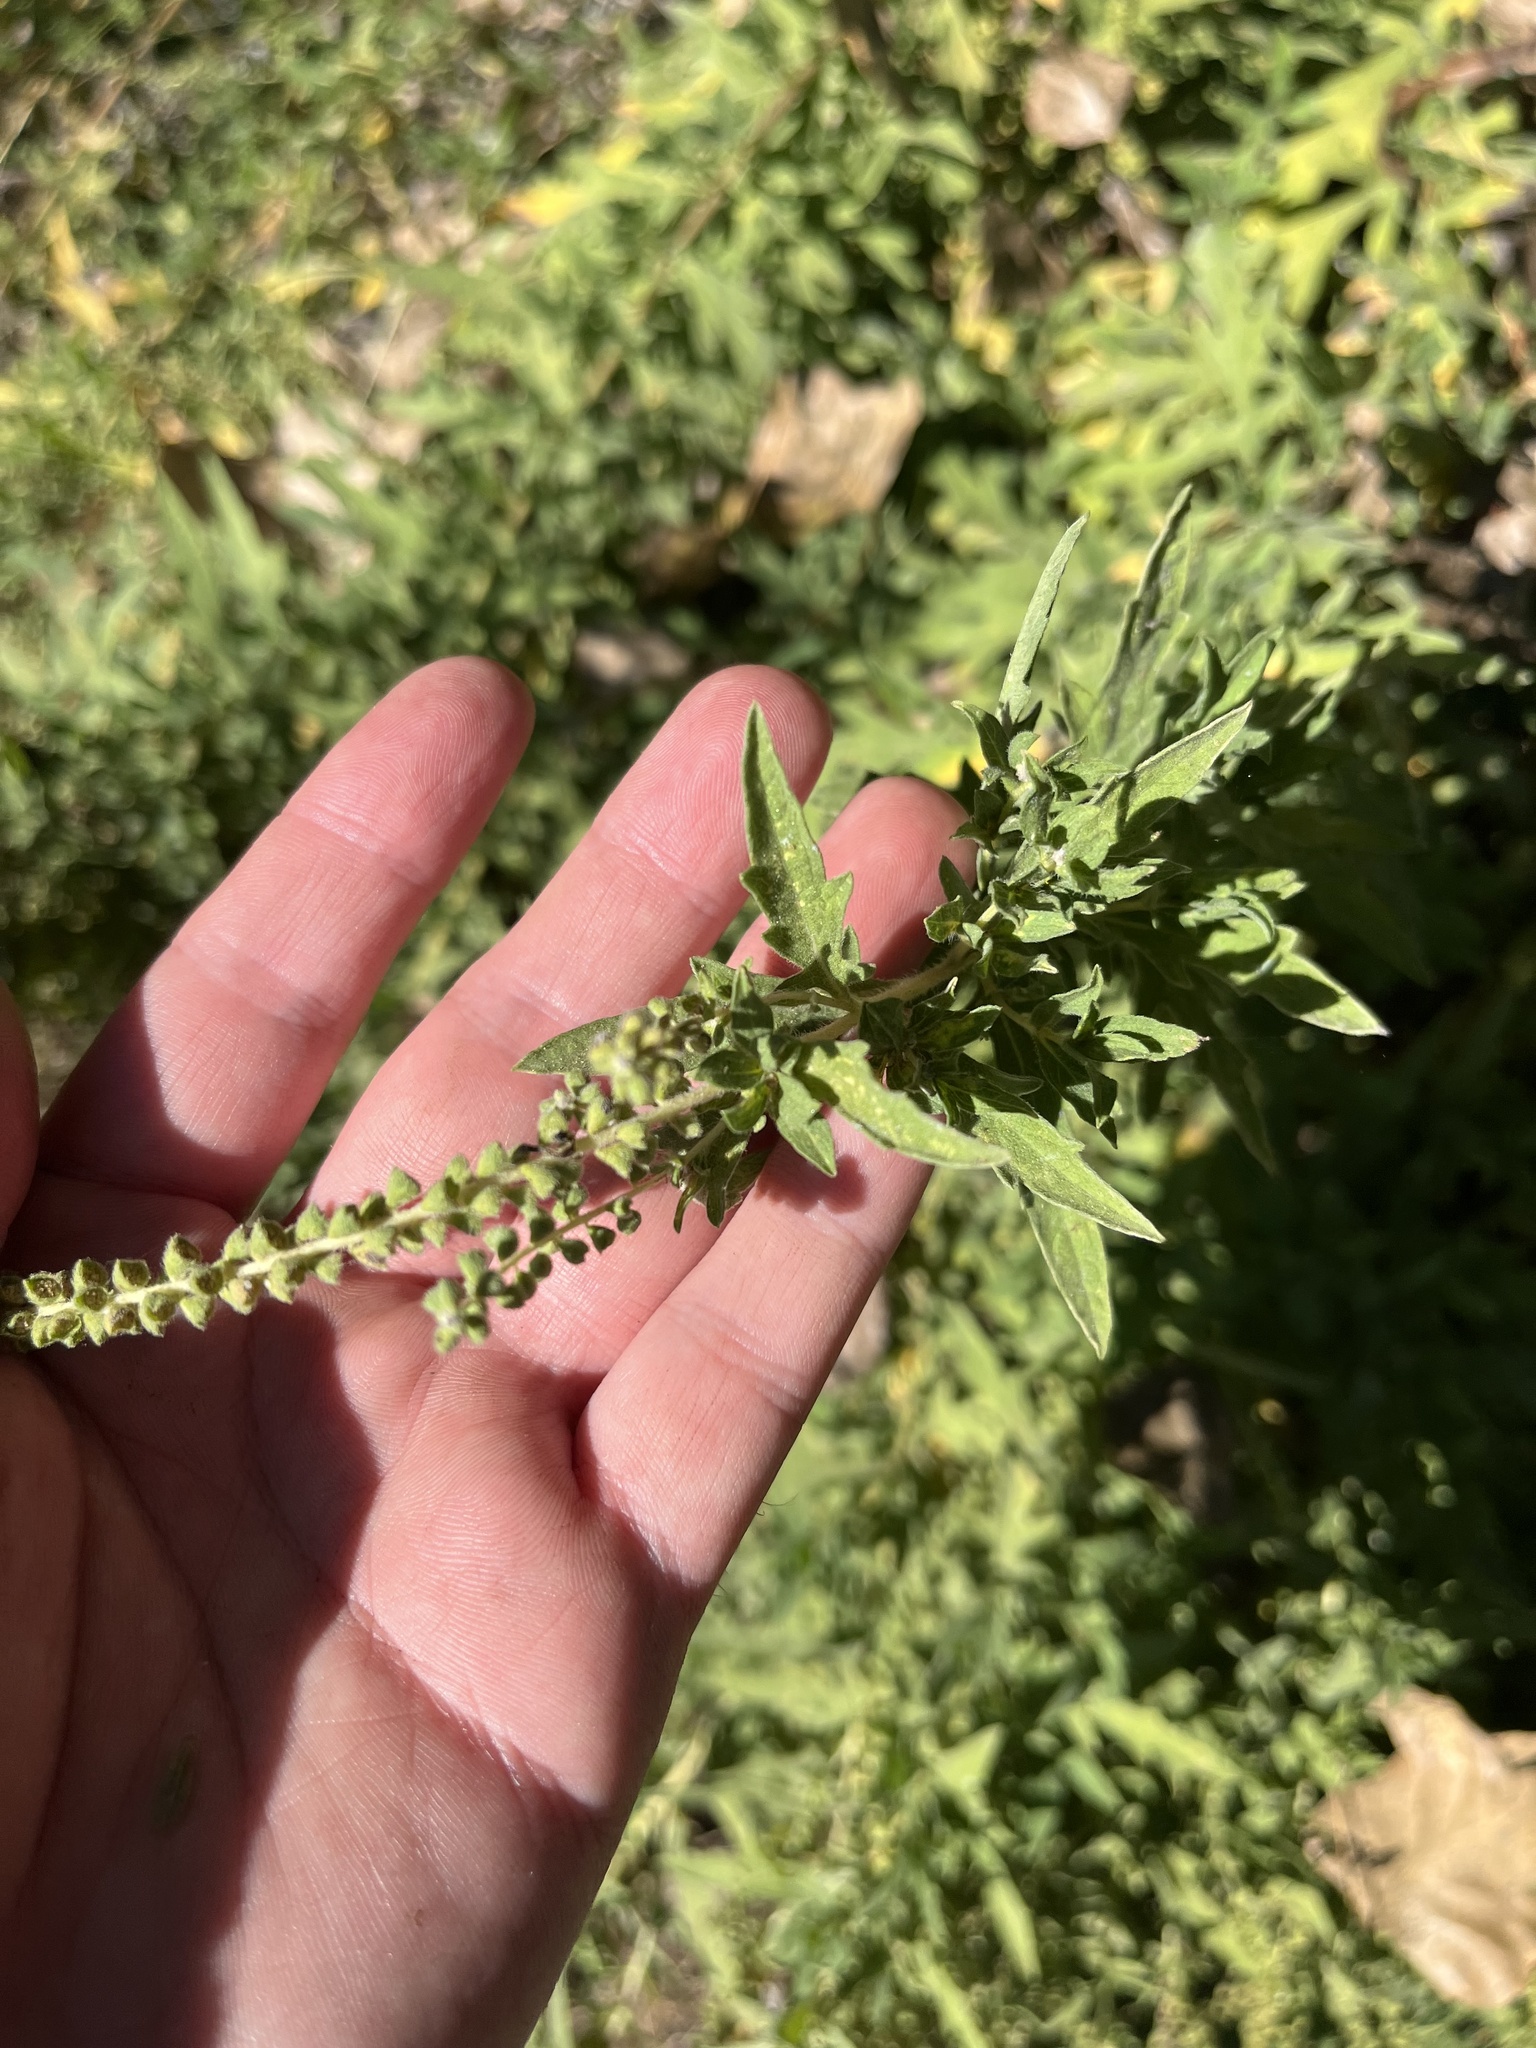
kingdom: Plantae
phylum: Tracheophyta
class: Magnoliopsida
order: Asterales
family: Asteraceae
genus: Ambrosia
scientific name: Ambrosia psilostachya
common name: Perennial ragweed
